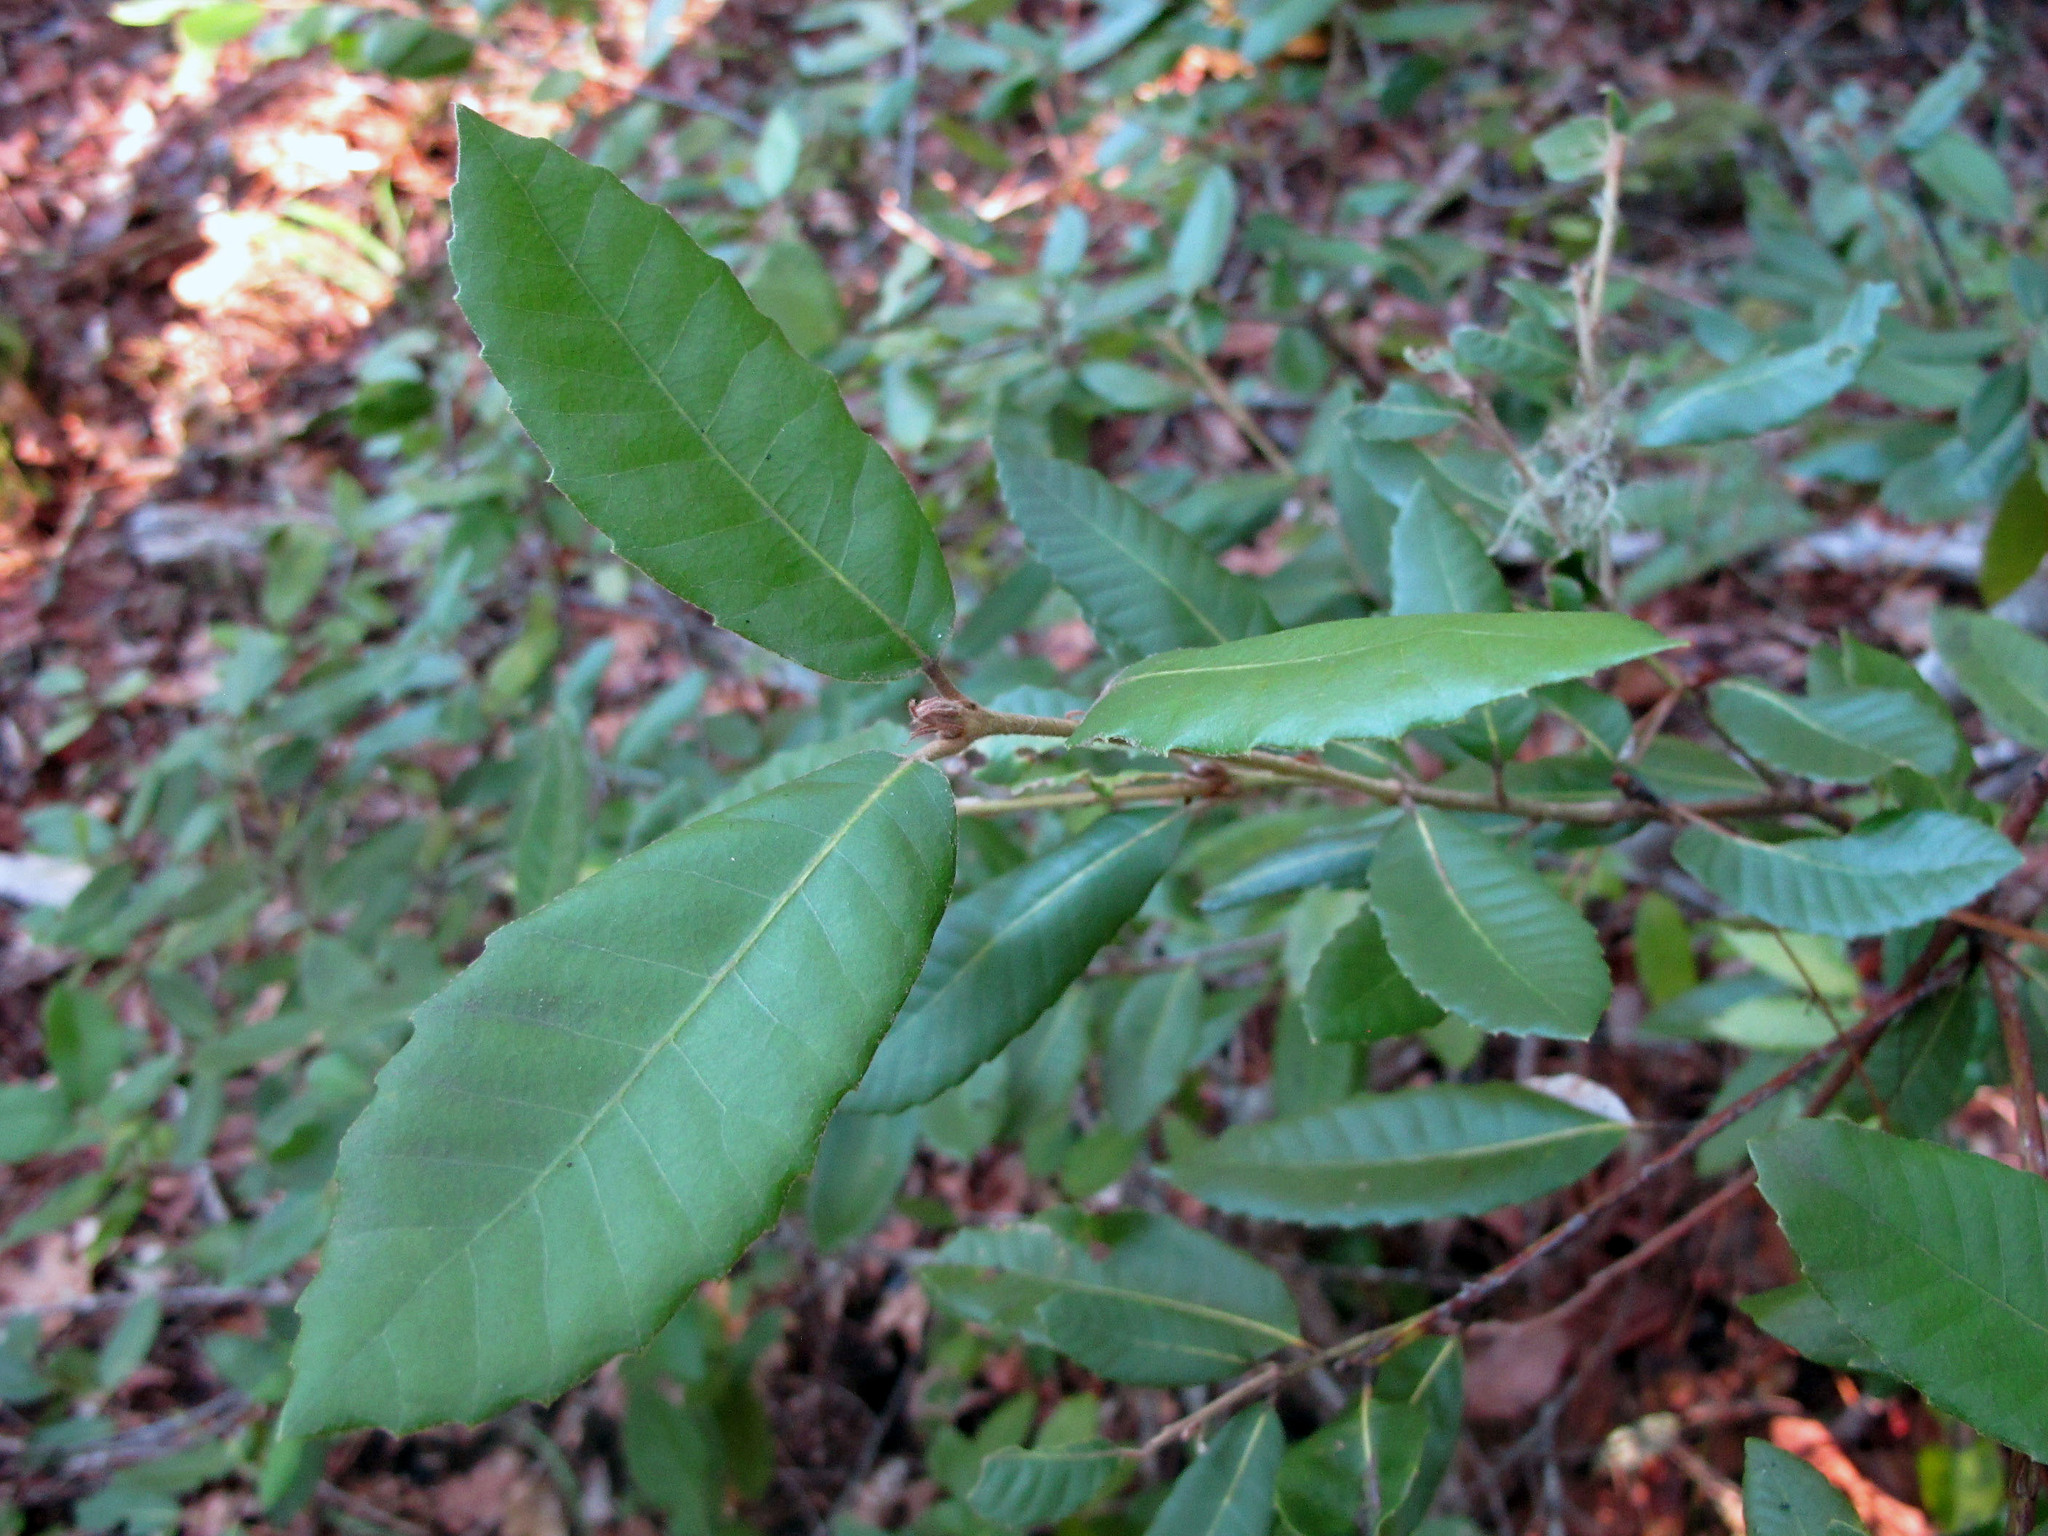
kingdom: Plantae
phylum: Tracheophyta
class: Magnoliopsida
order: Fagales
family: Fagaceae
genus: Notholithocarpus
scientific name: Notholithocarpus densiflorus
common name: Tan bark oak
